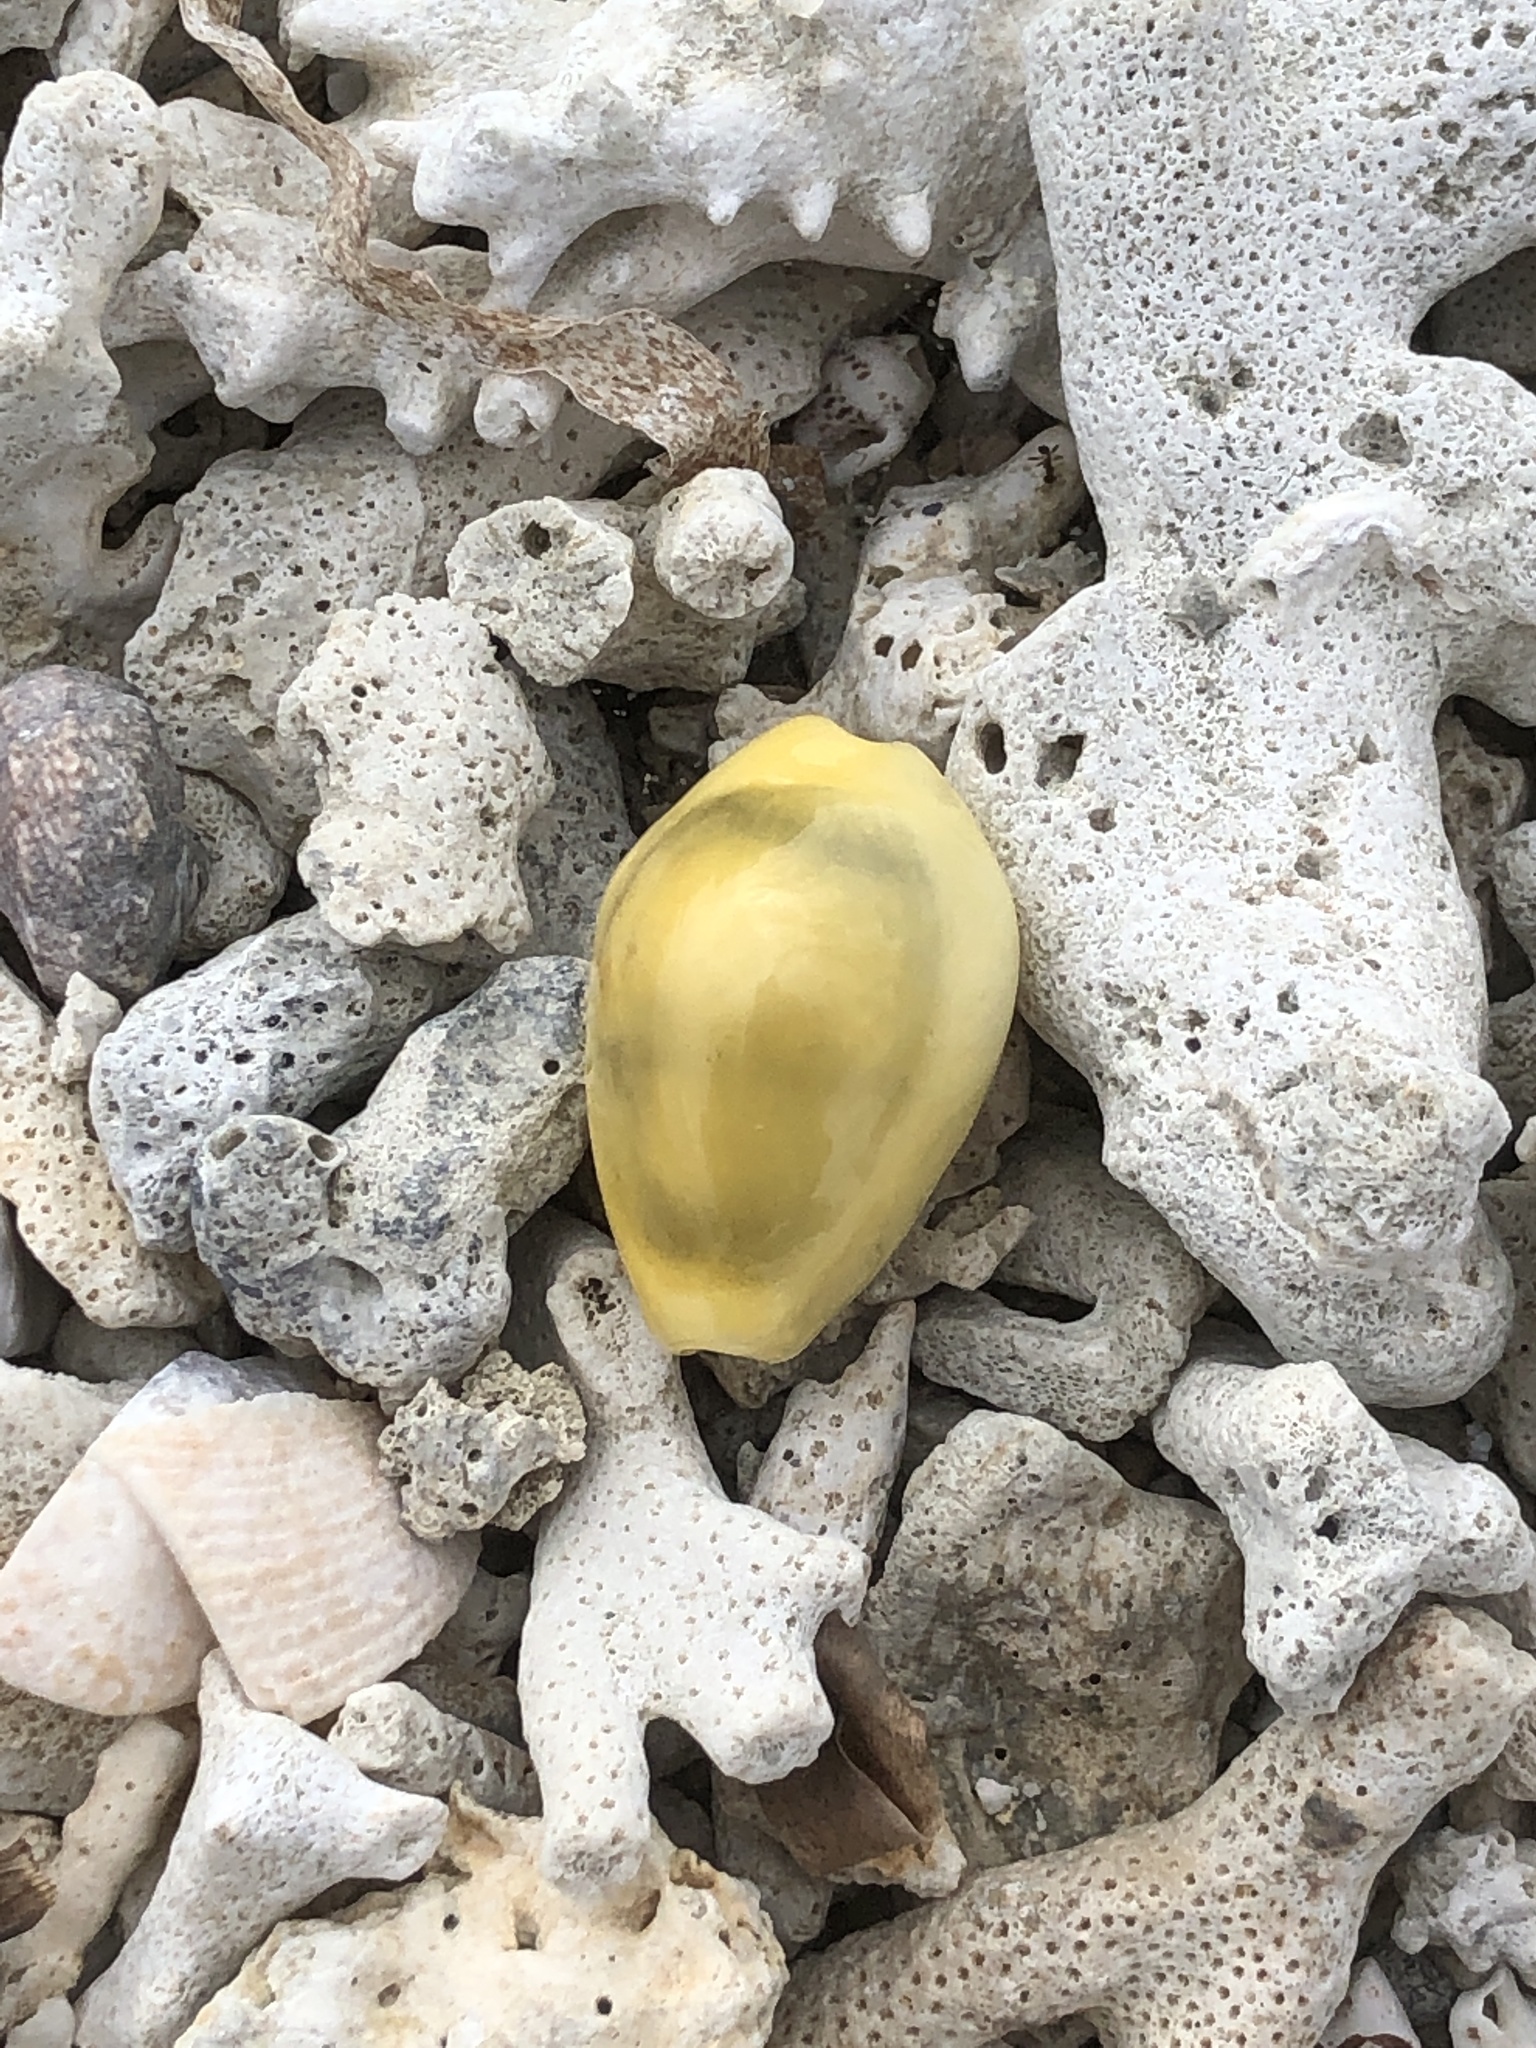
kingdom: Animalia
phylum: Mollusca
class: Gastropoda
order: Littorinimorpha
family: Cypraeidae
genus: Monetaria
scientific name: Monetaria moneta
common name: Money cowrie
